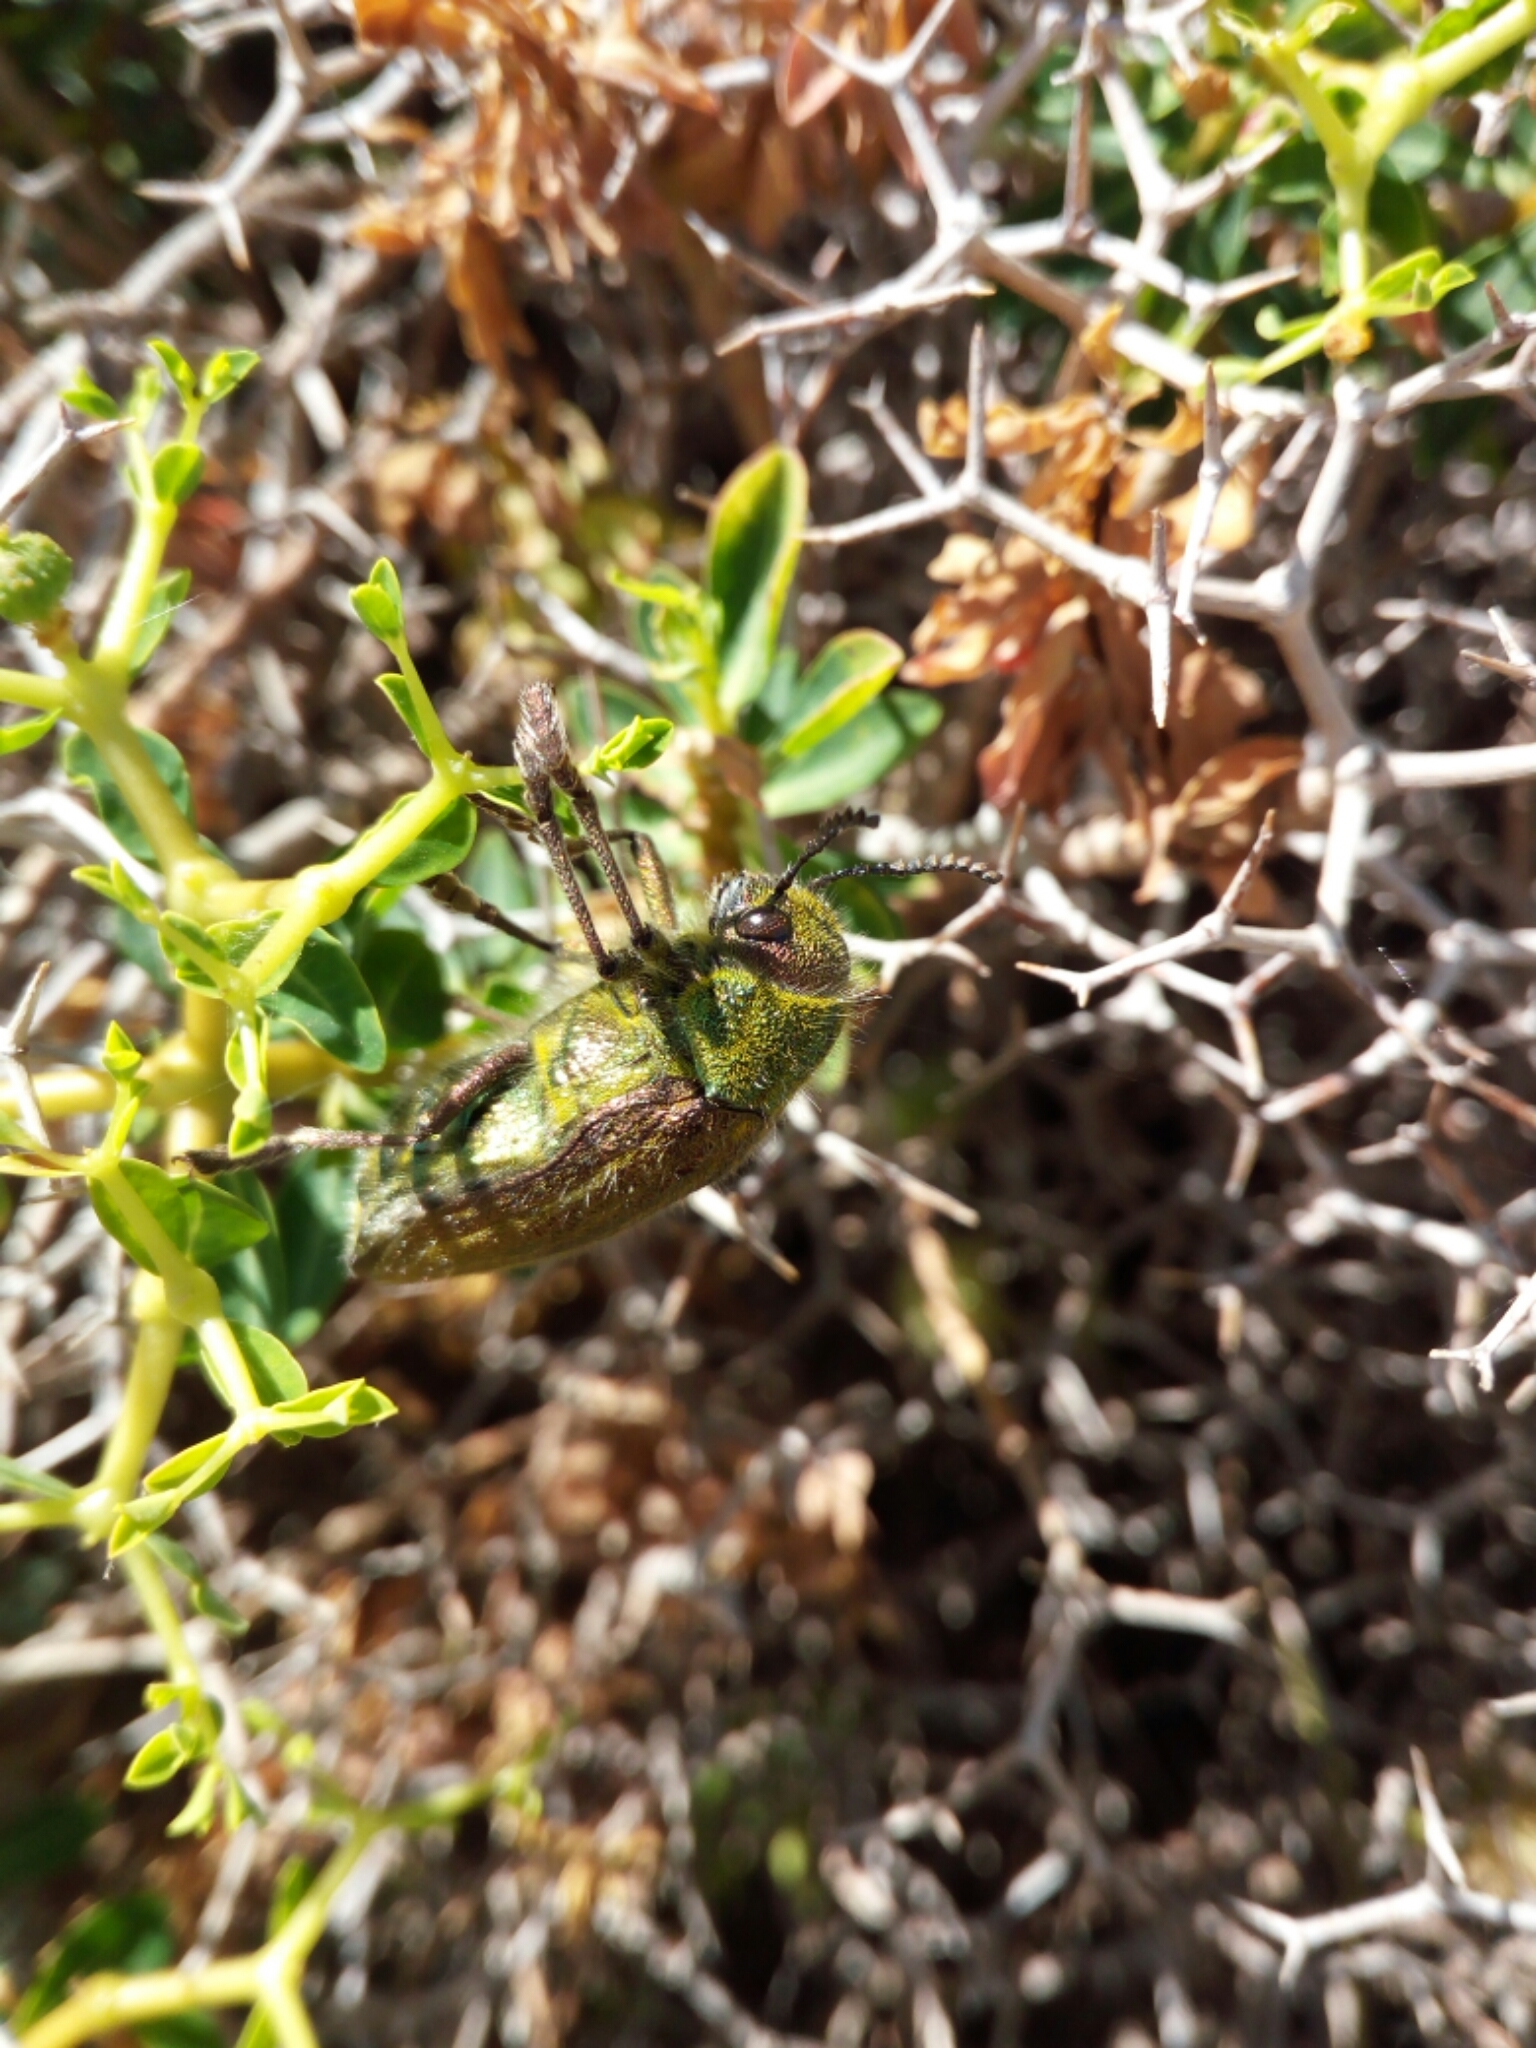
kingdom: Animalia
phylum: Arthropoda
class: Insecta
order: Coleoptera
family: Buprestidae
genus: Julodis
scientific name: Julodis pubescens
